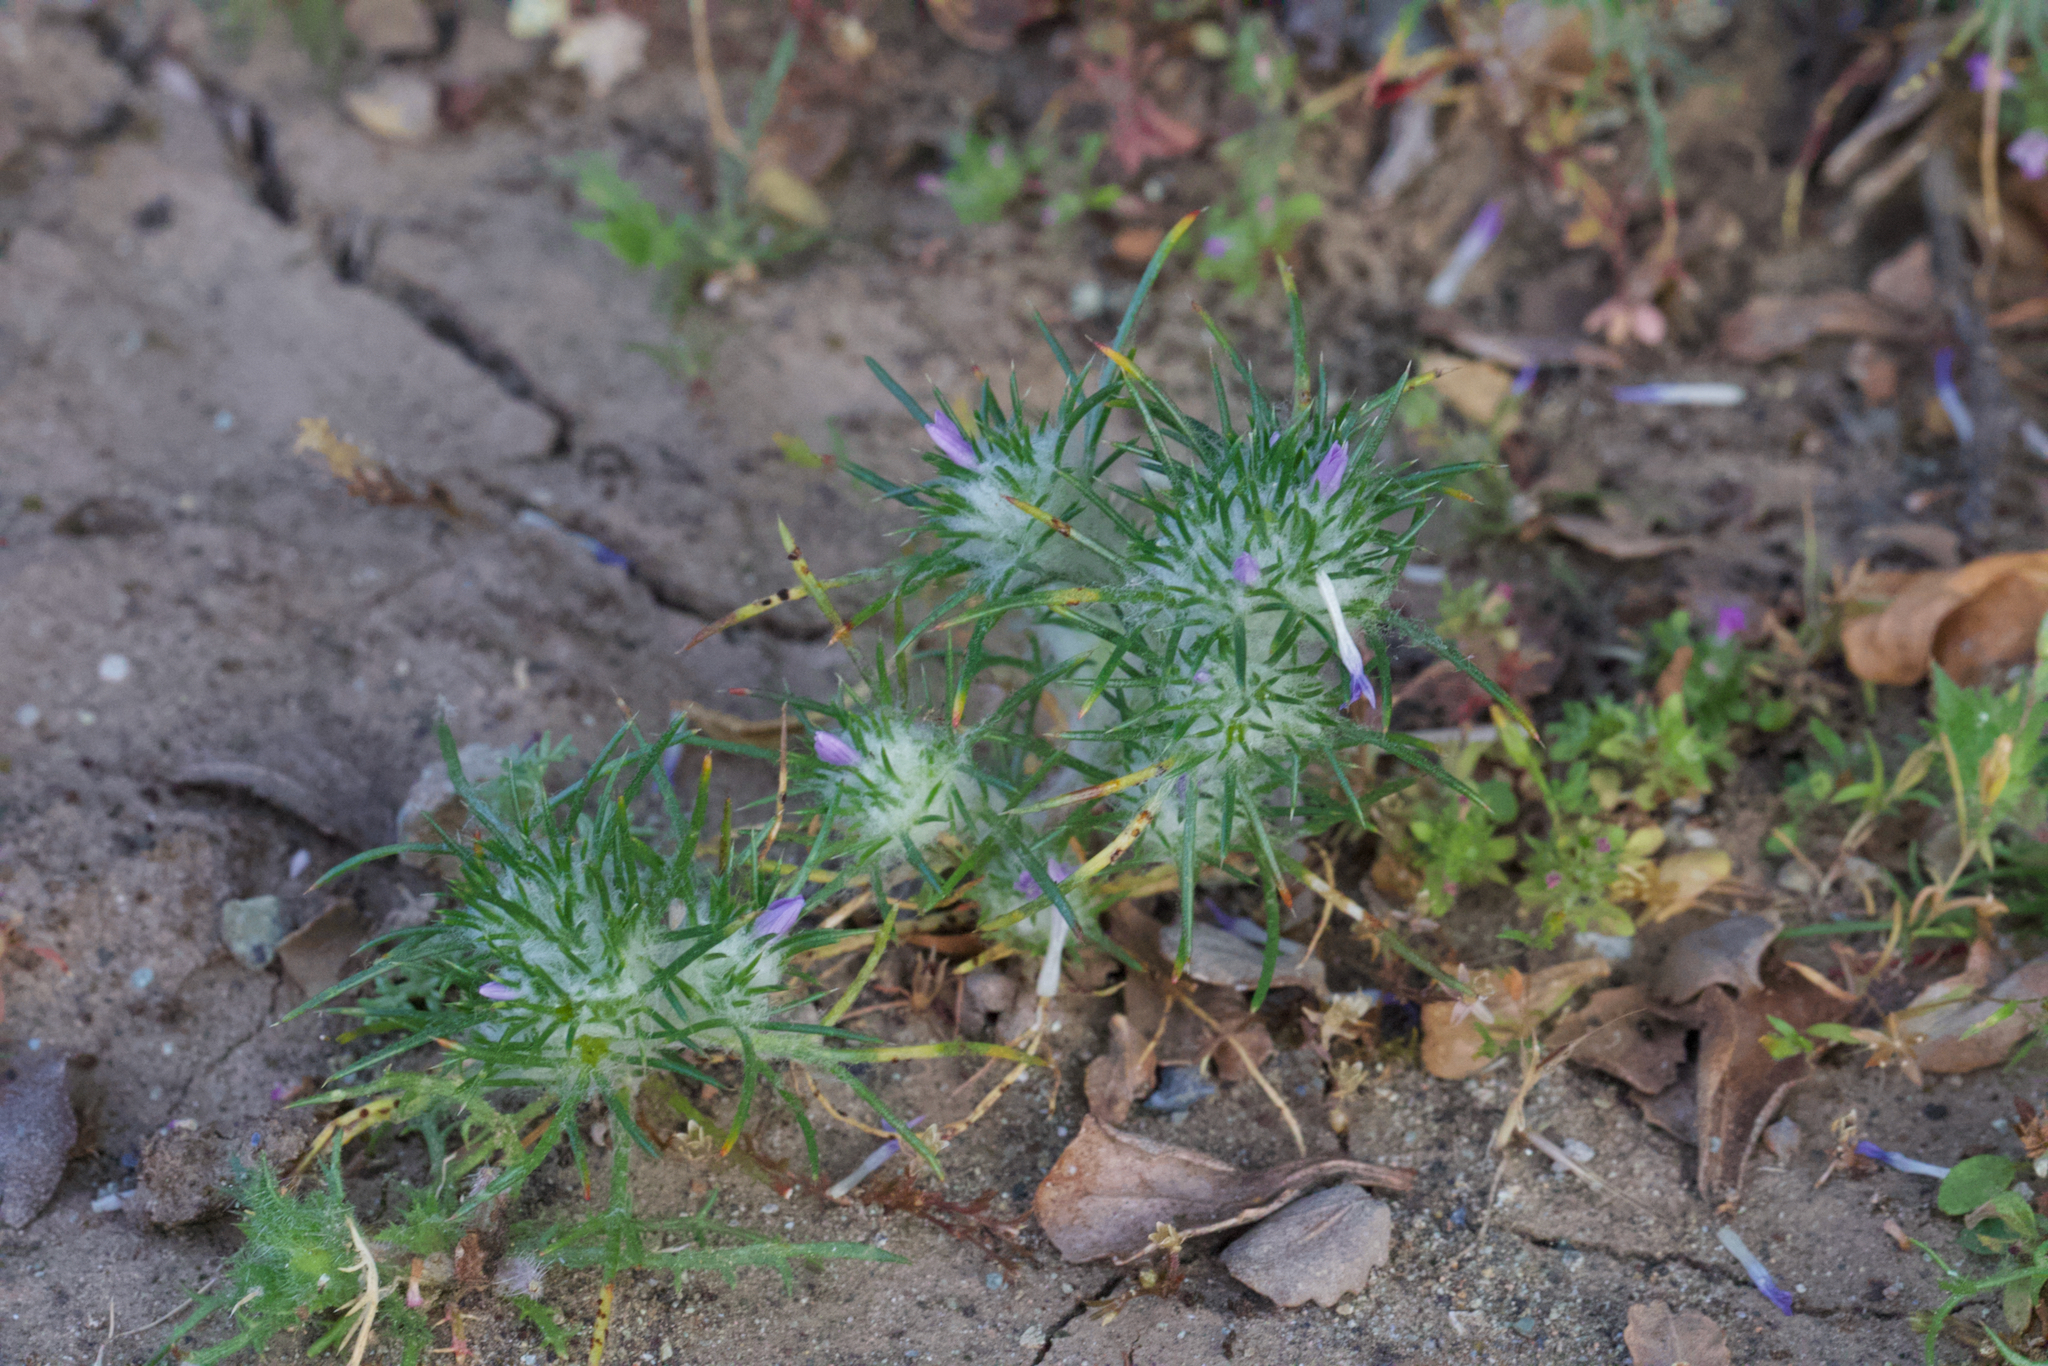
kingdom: Plantae
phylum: Tracheophyta
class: Magnoliopsida
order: Ericales
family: Polemoniaceae
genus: Eriastrum
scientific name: Eriastrum abramsii
